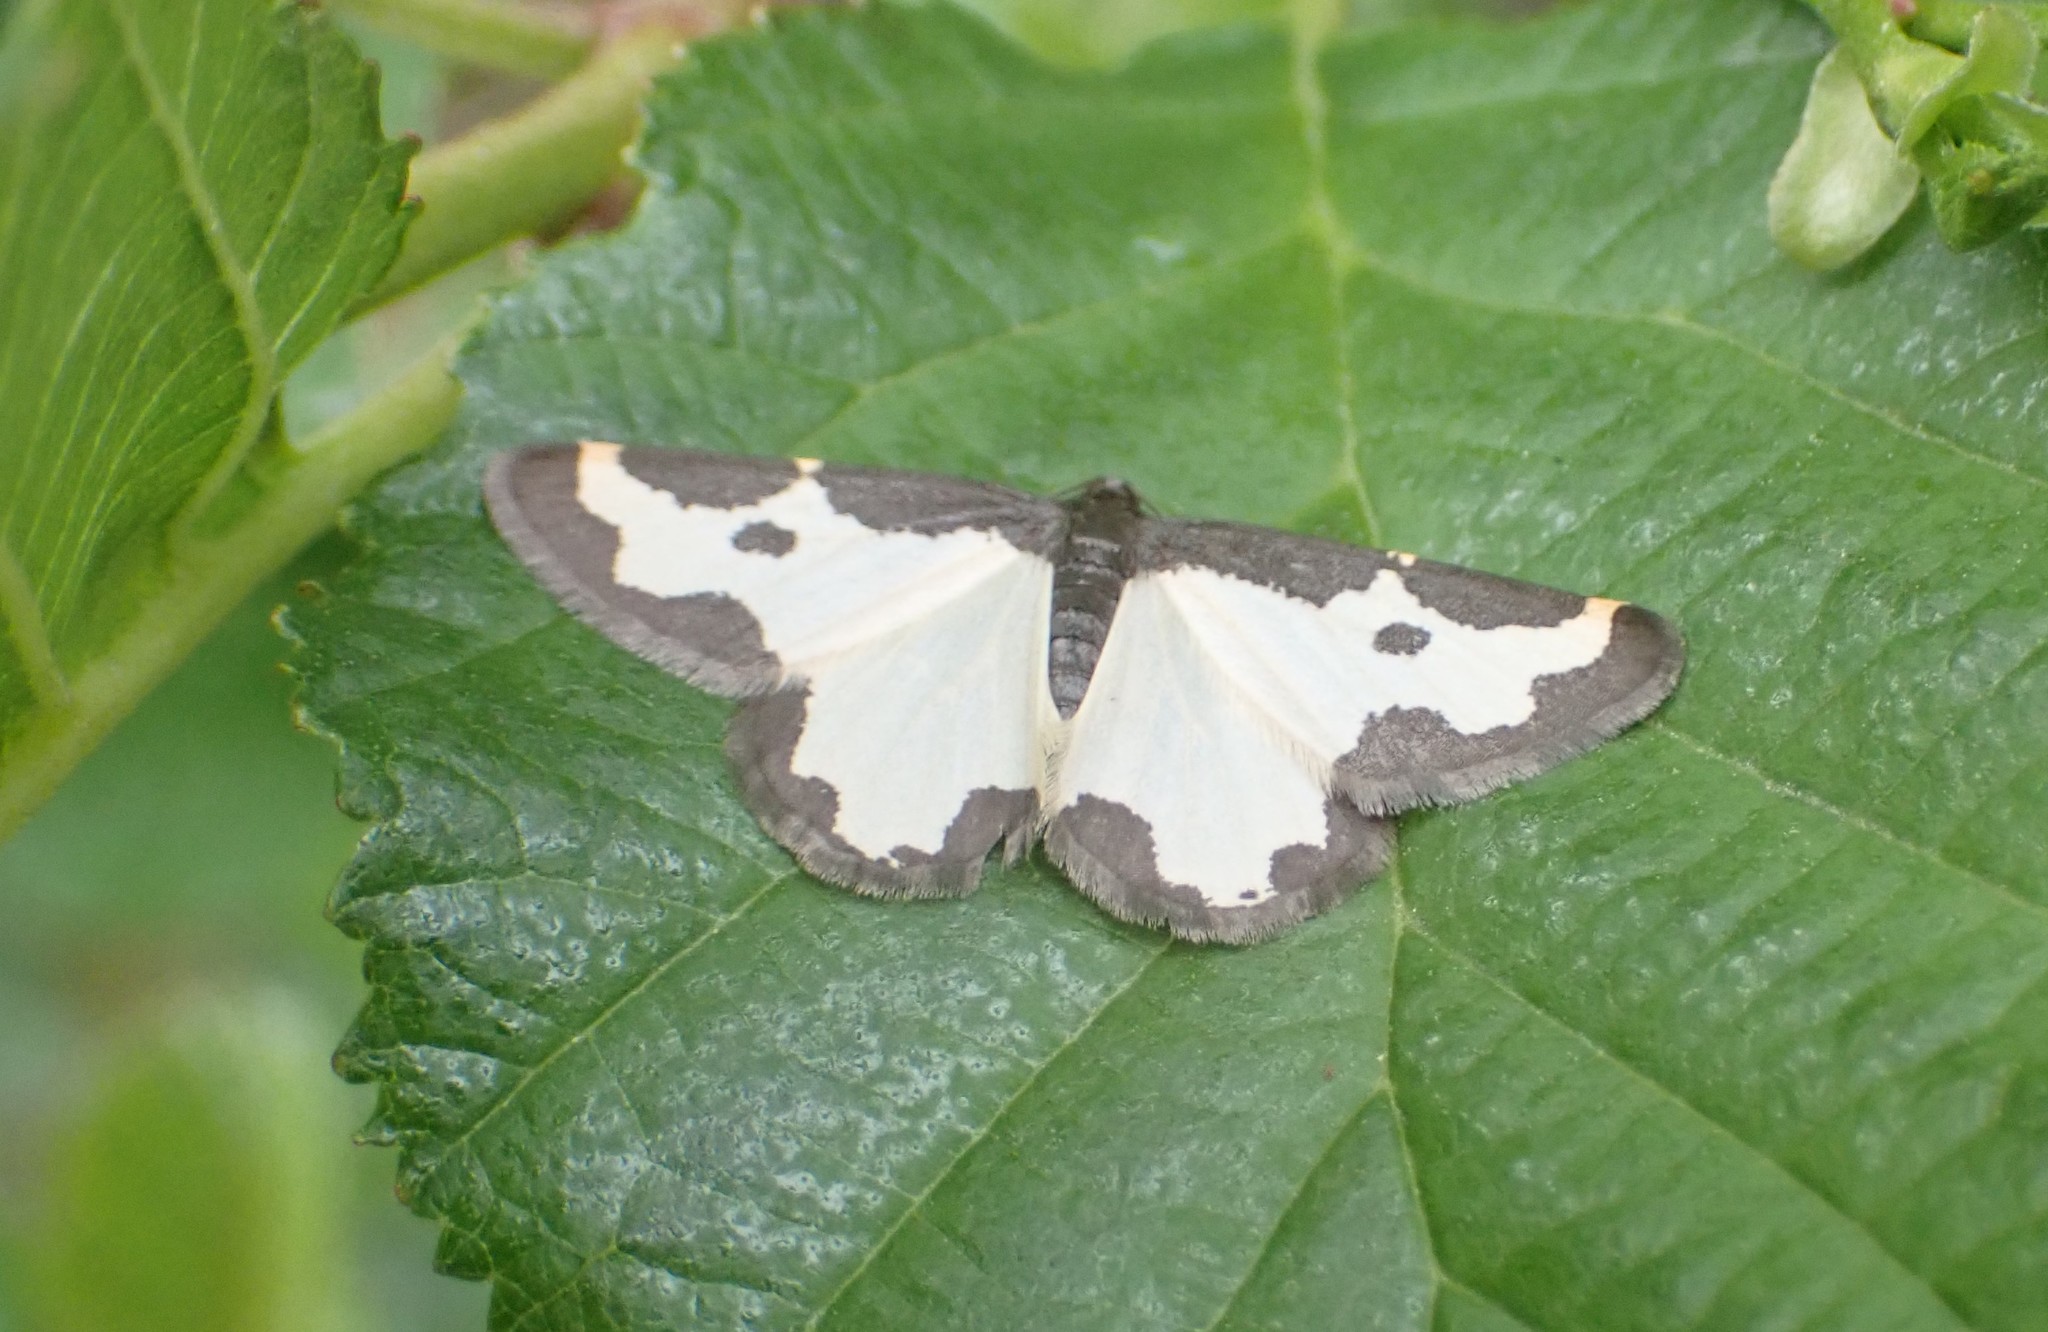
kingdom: Animalia
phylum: Arthropoda
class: Insecta
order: Lepidoptera
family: Geometridae
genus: Lomaspilis
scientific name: Lomaspilis marginata
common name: Clouded border
